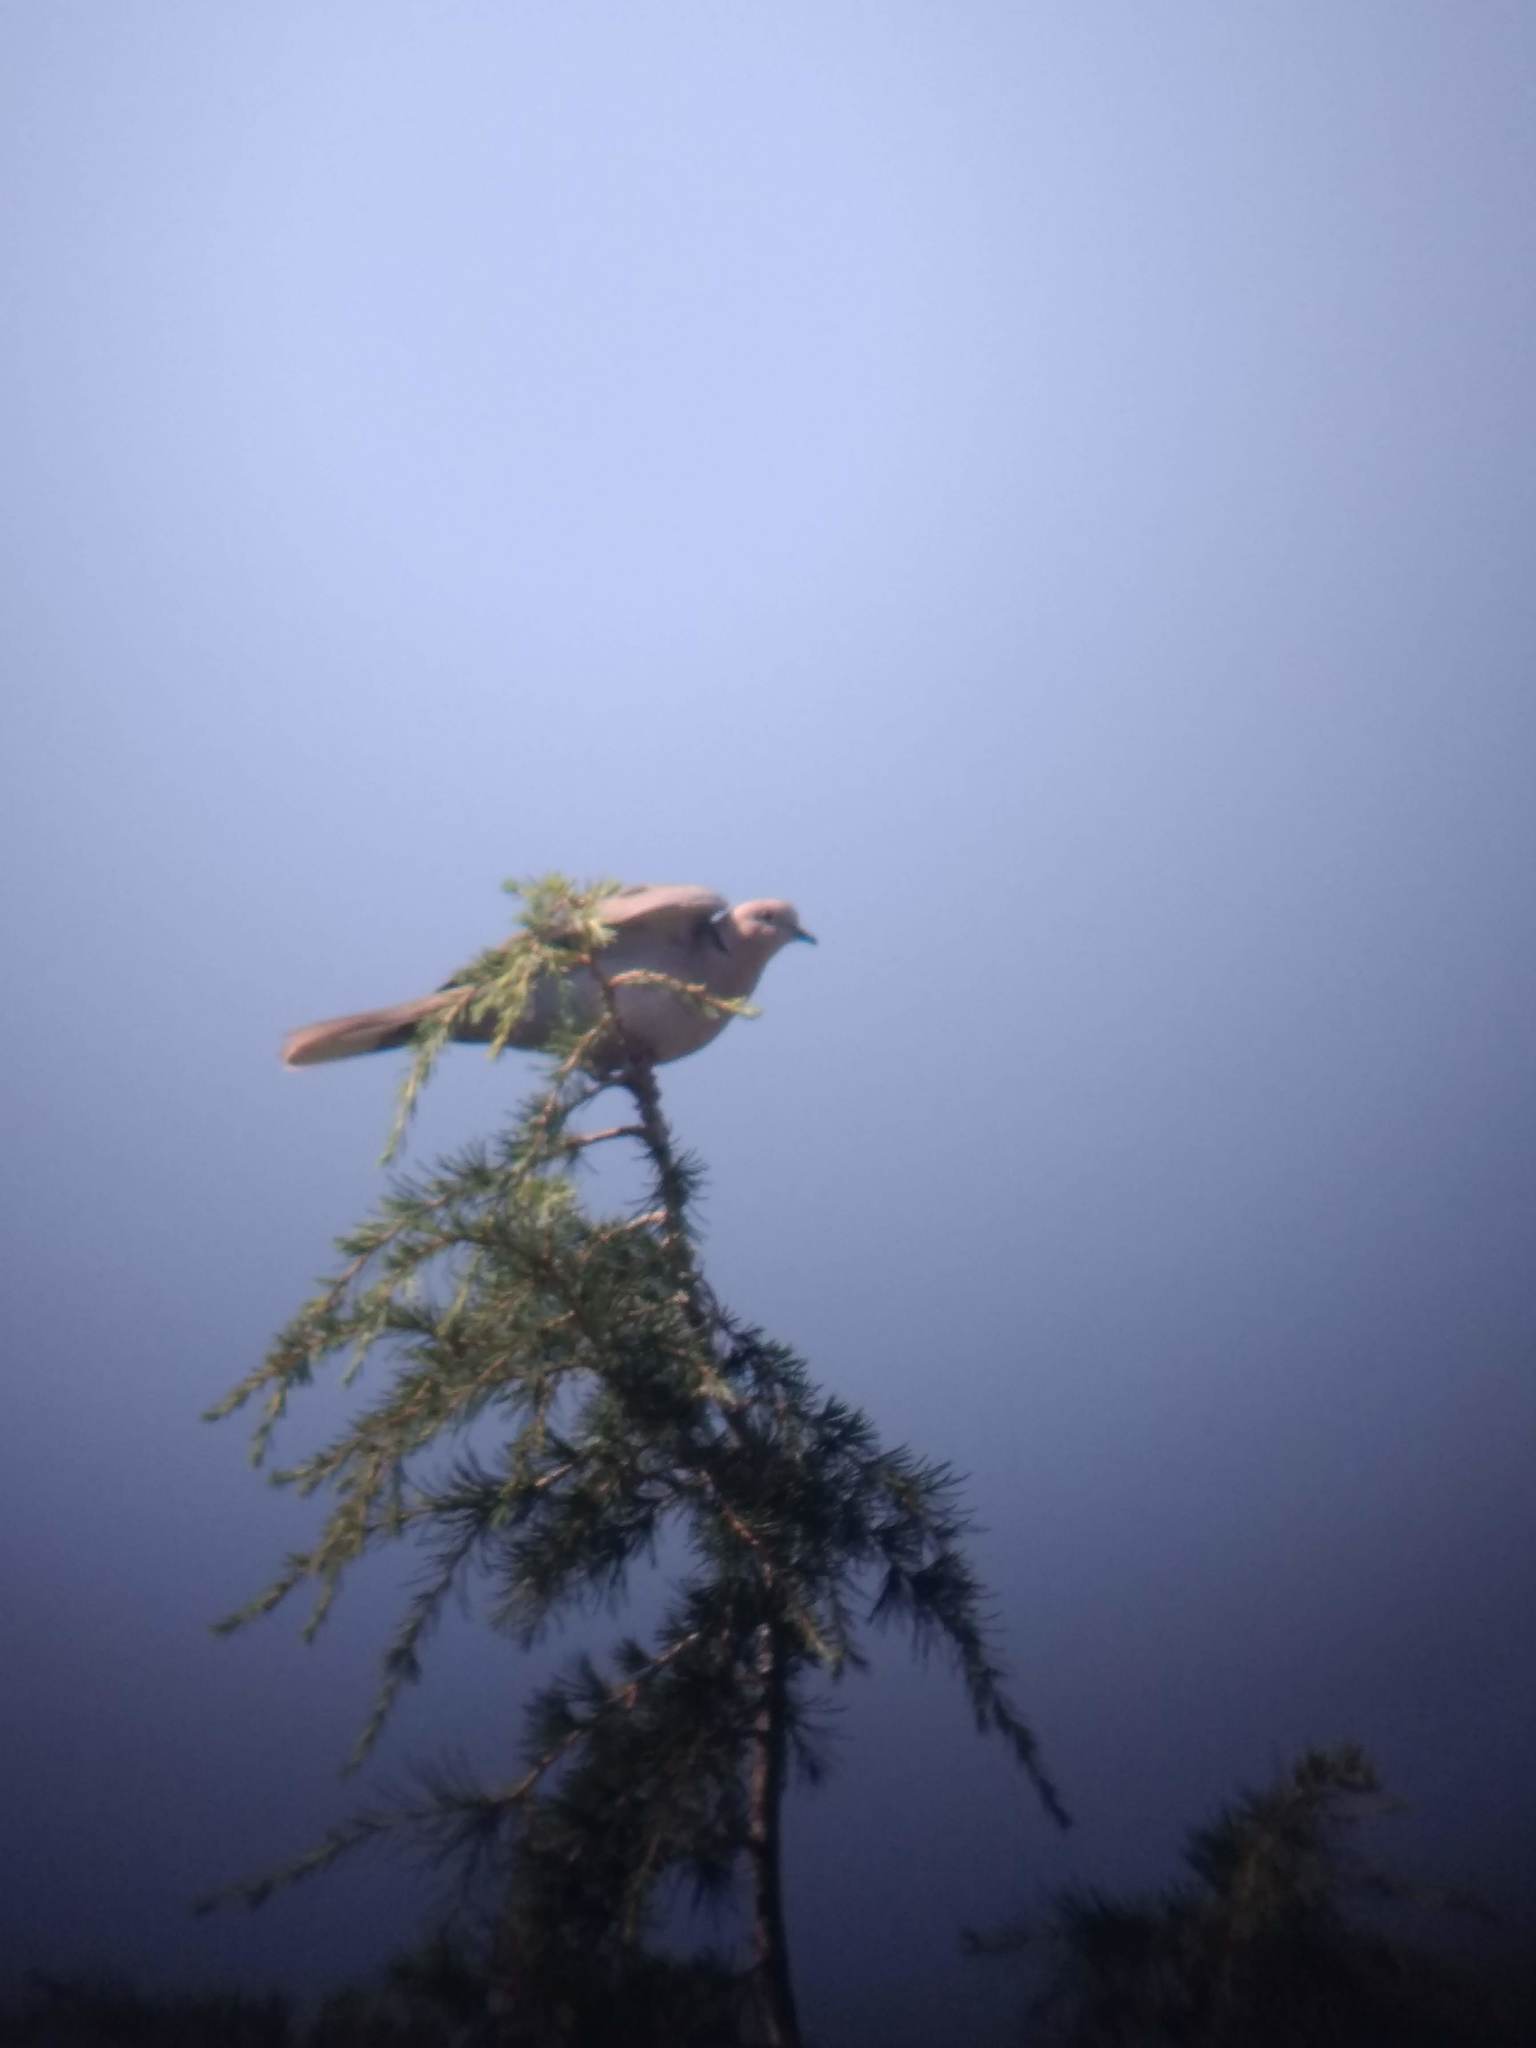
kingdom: Animalia
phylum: Chordata
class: Aves
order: Columbiformes
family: Columbidae
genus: Streptopelia
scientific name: Streptopelia decaocto
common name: Eurasian collared dove
